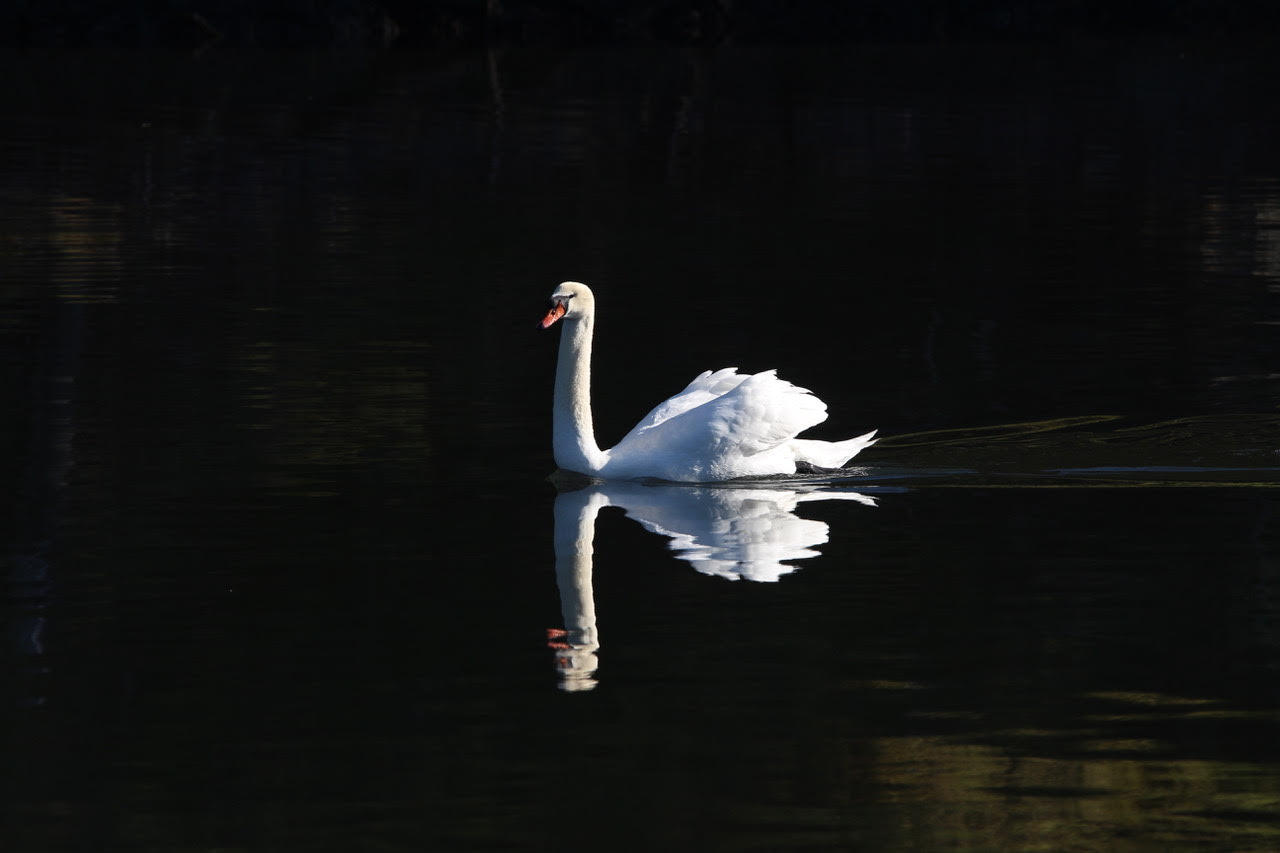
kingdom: Animalia
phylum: Chordata
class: Aves
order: Anseriformes
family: Anatidae
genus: Cygnus
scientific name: Cygnus olor
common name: Mute swan
